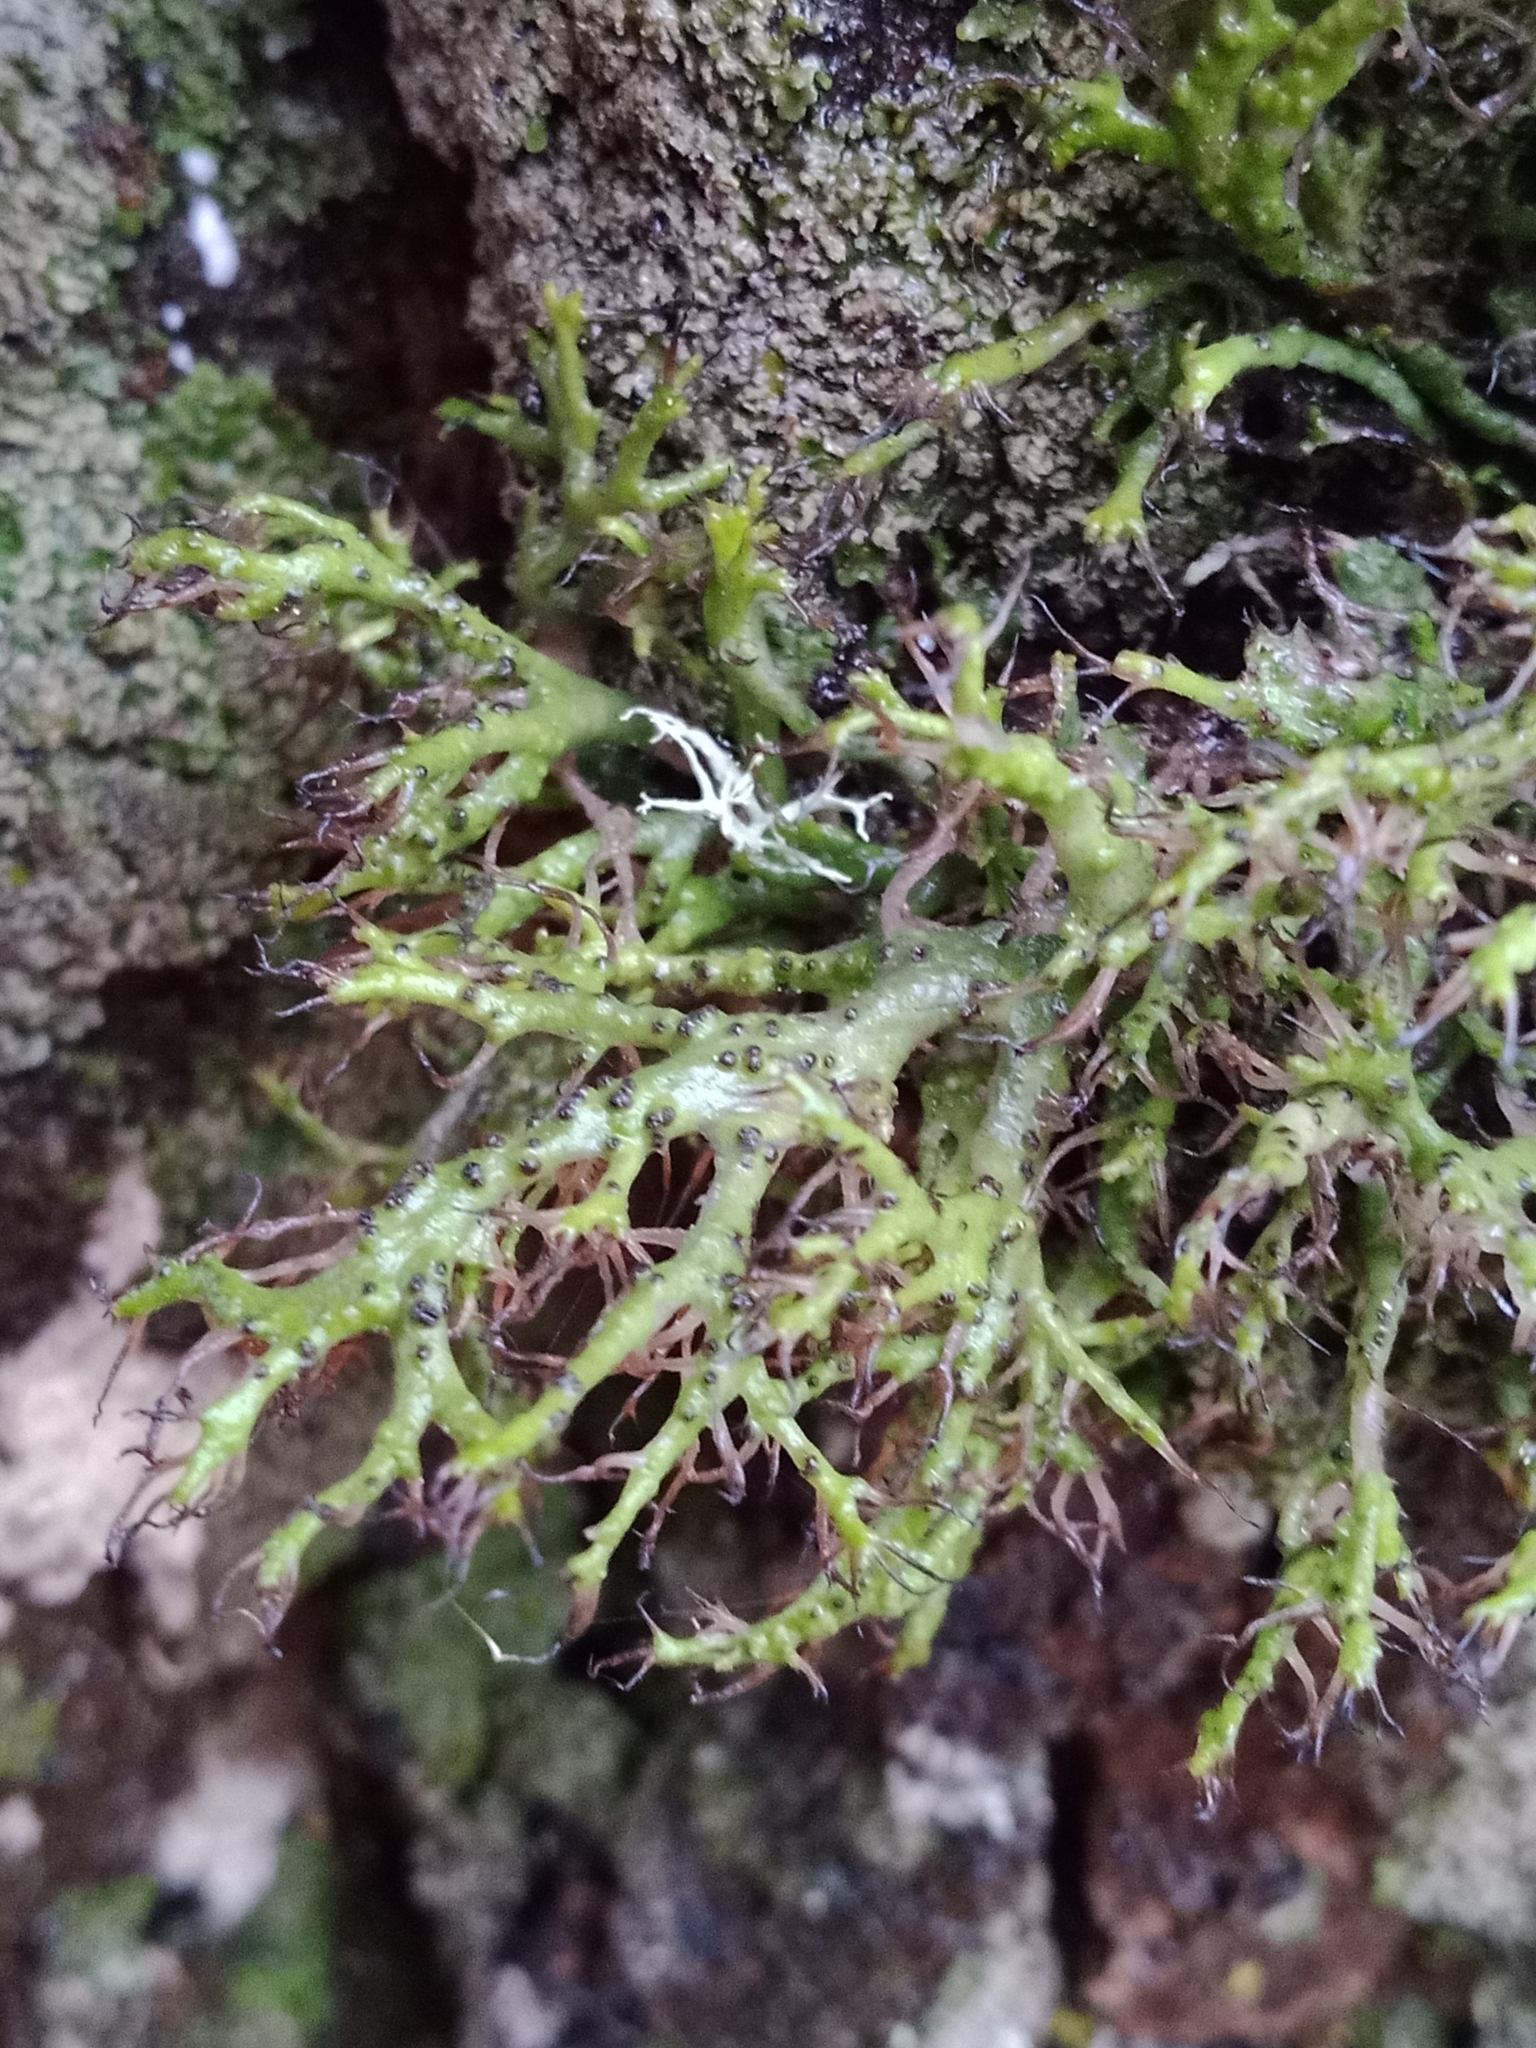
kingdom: Fungi
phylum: Ascomycota
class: Lecanoromycetes
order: Caliciales
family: Physciaceae
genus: Anaptychia
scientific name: Anaptychia ciliaris
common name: Great ciliated lichen
